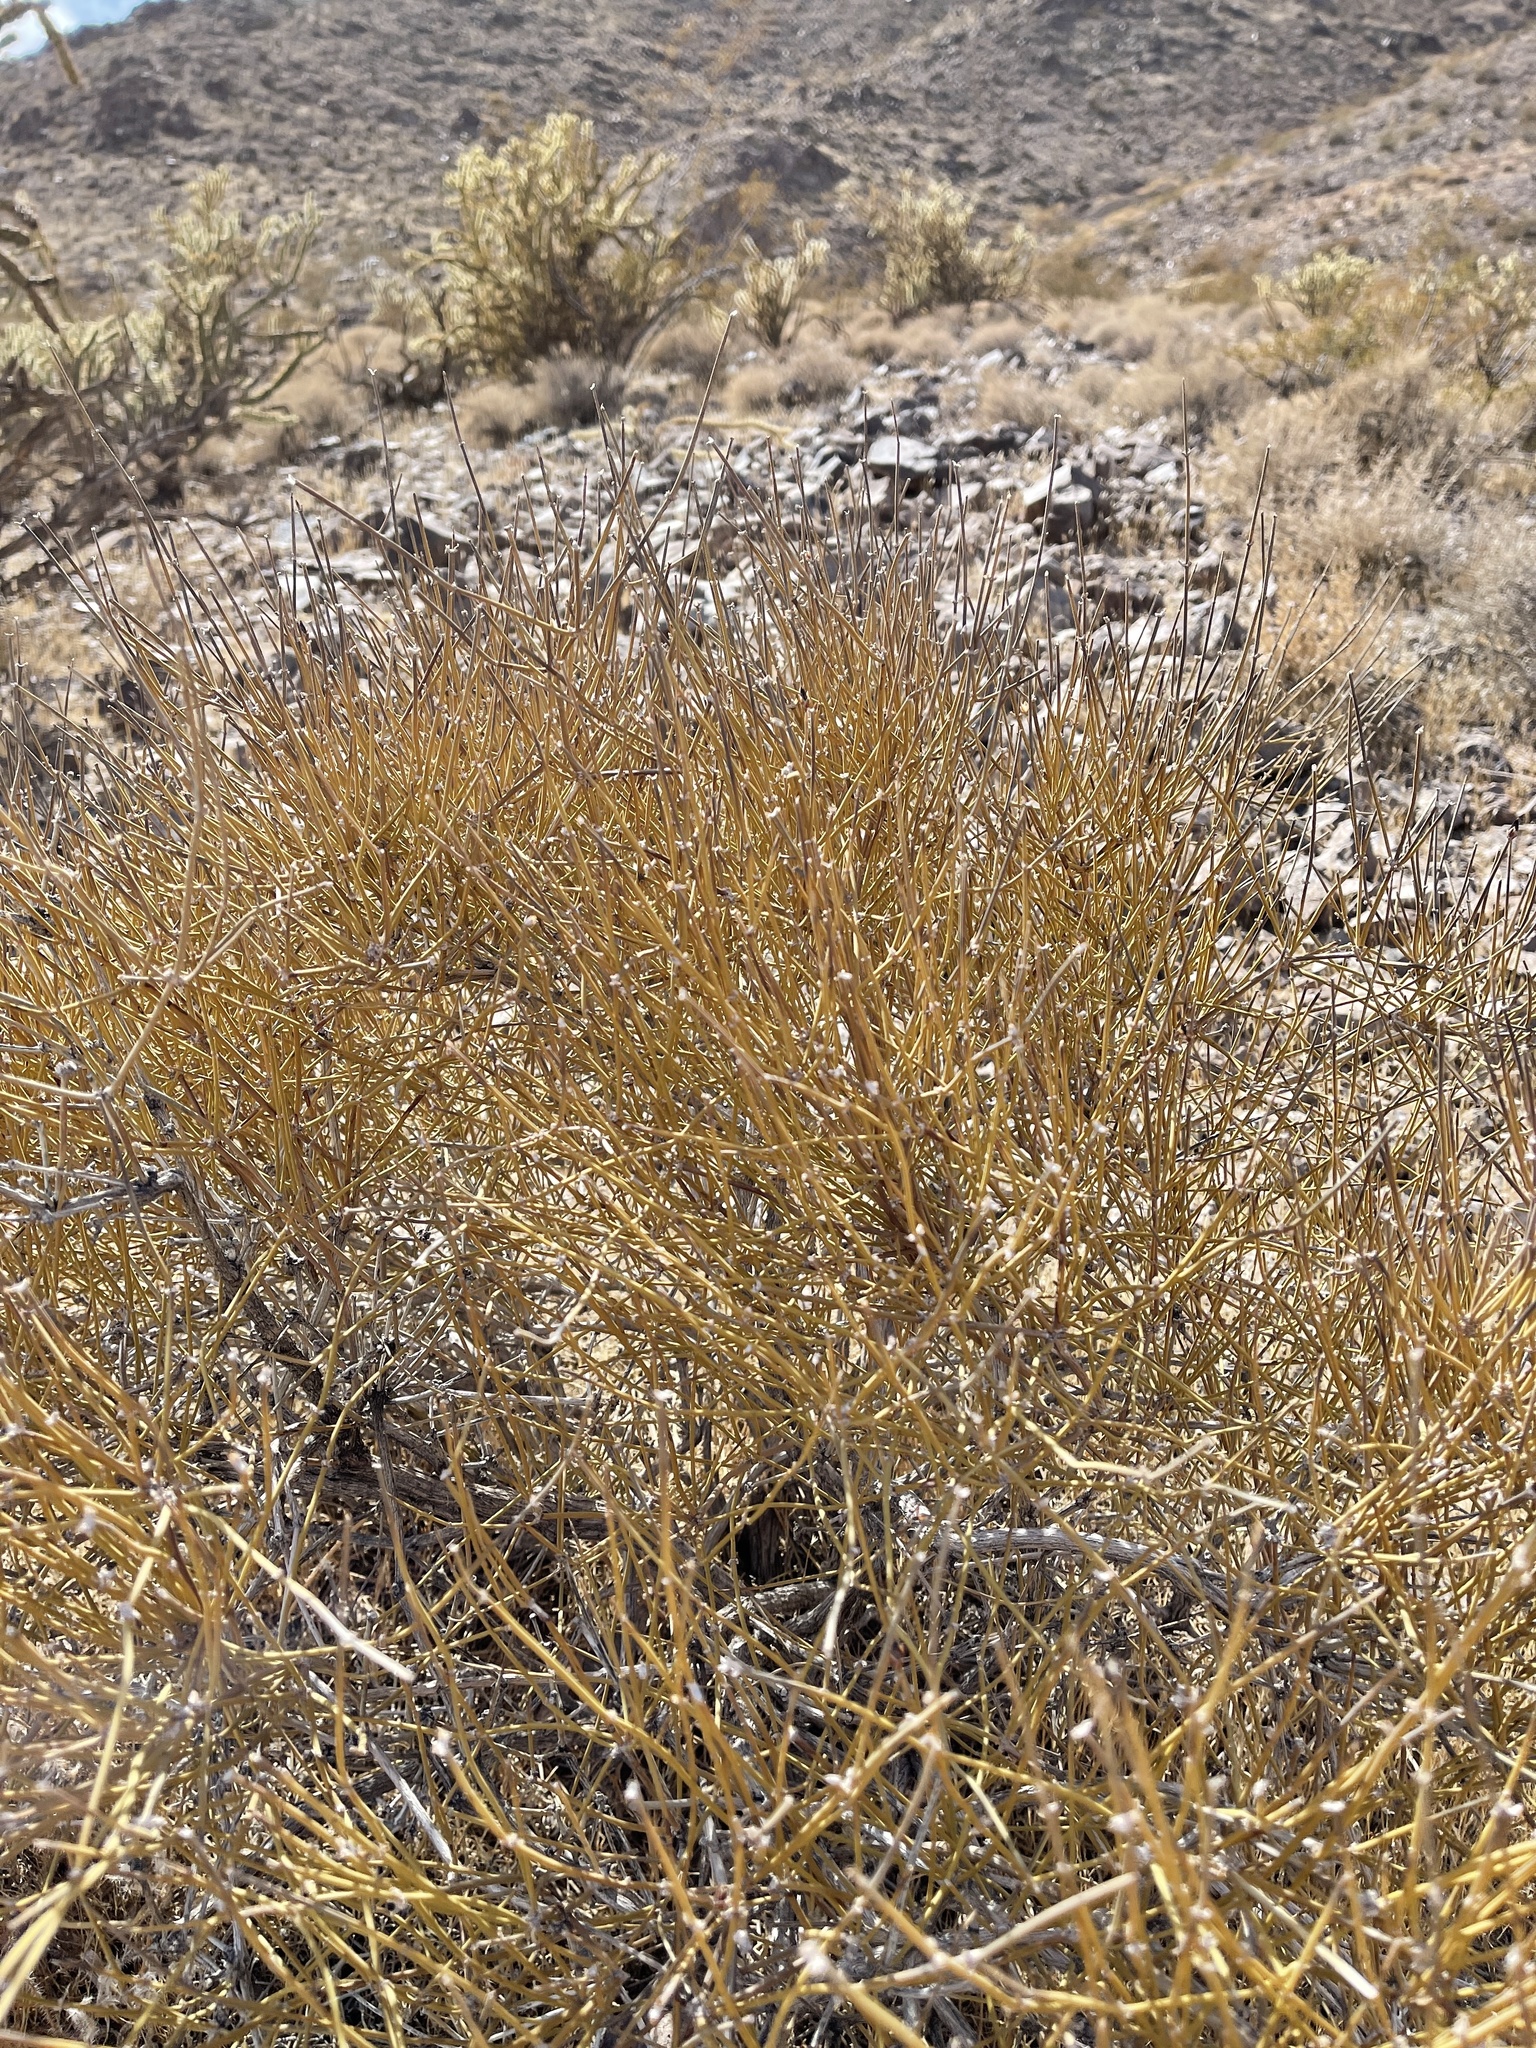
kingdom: Plantae
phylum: Tracheophyta
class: Gnetopsida
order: Ephedrales
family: Ephedraceae
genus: Ephedra
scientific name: Ephedra nevadensis
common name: Gray ephedra
